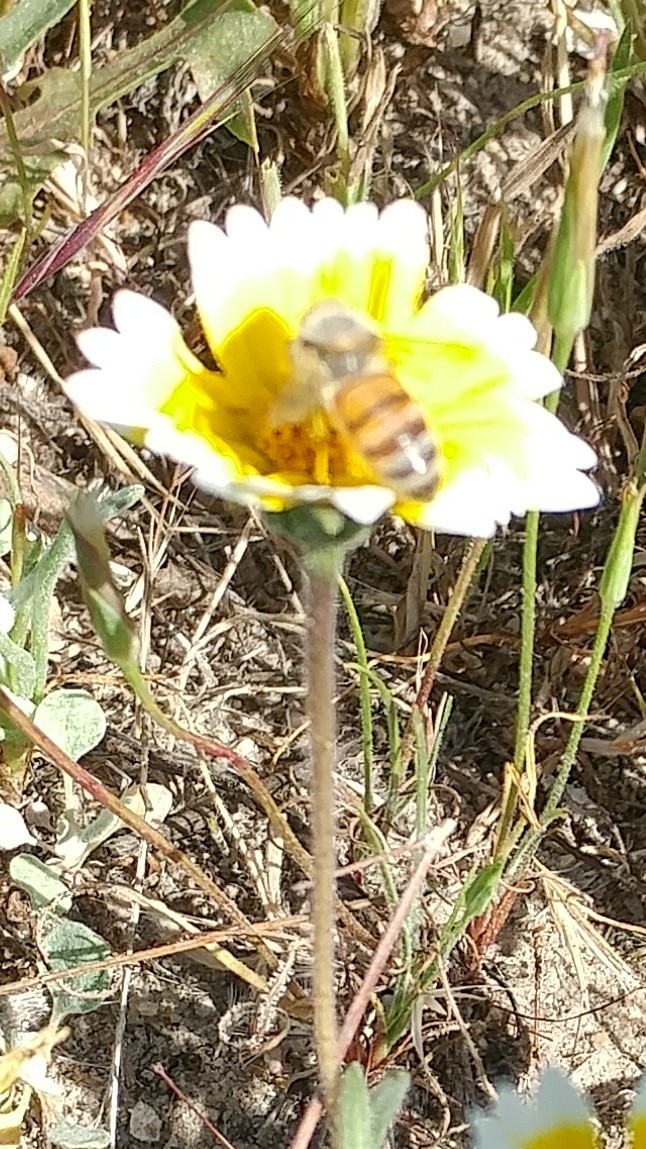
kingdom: Animalia
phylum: Arthropoda
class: Insecta
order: Hymenoptera
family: Apidae
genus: Apis
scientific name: Apis mellifera
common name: Honey bee
